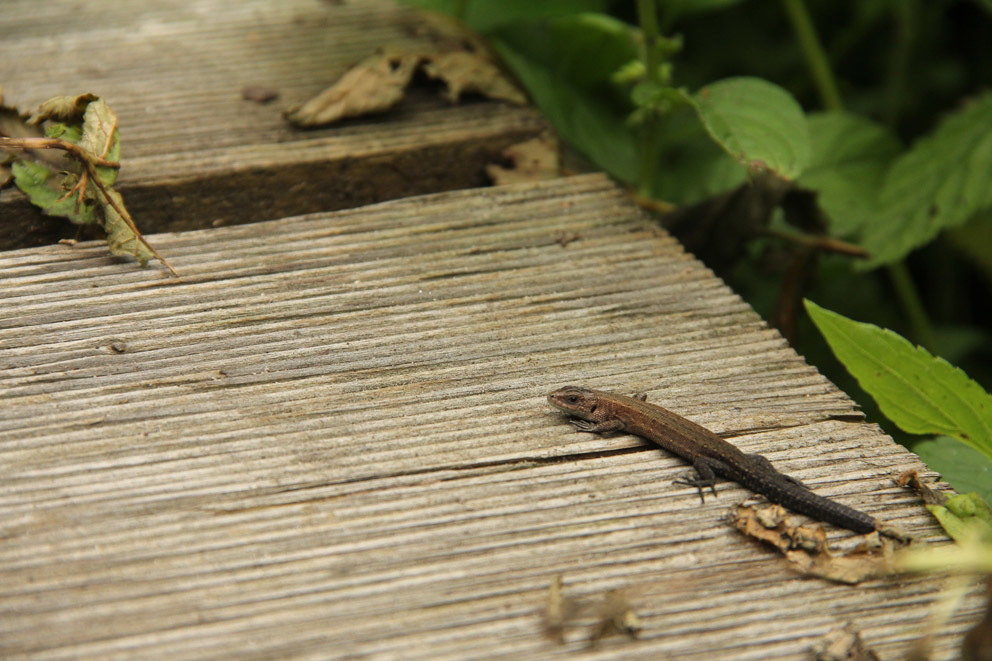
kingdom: Animalia
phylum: Chordata
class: Squamata
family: Lacertidae
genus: Zootoca
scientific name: Zootoca vivipara
